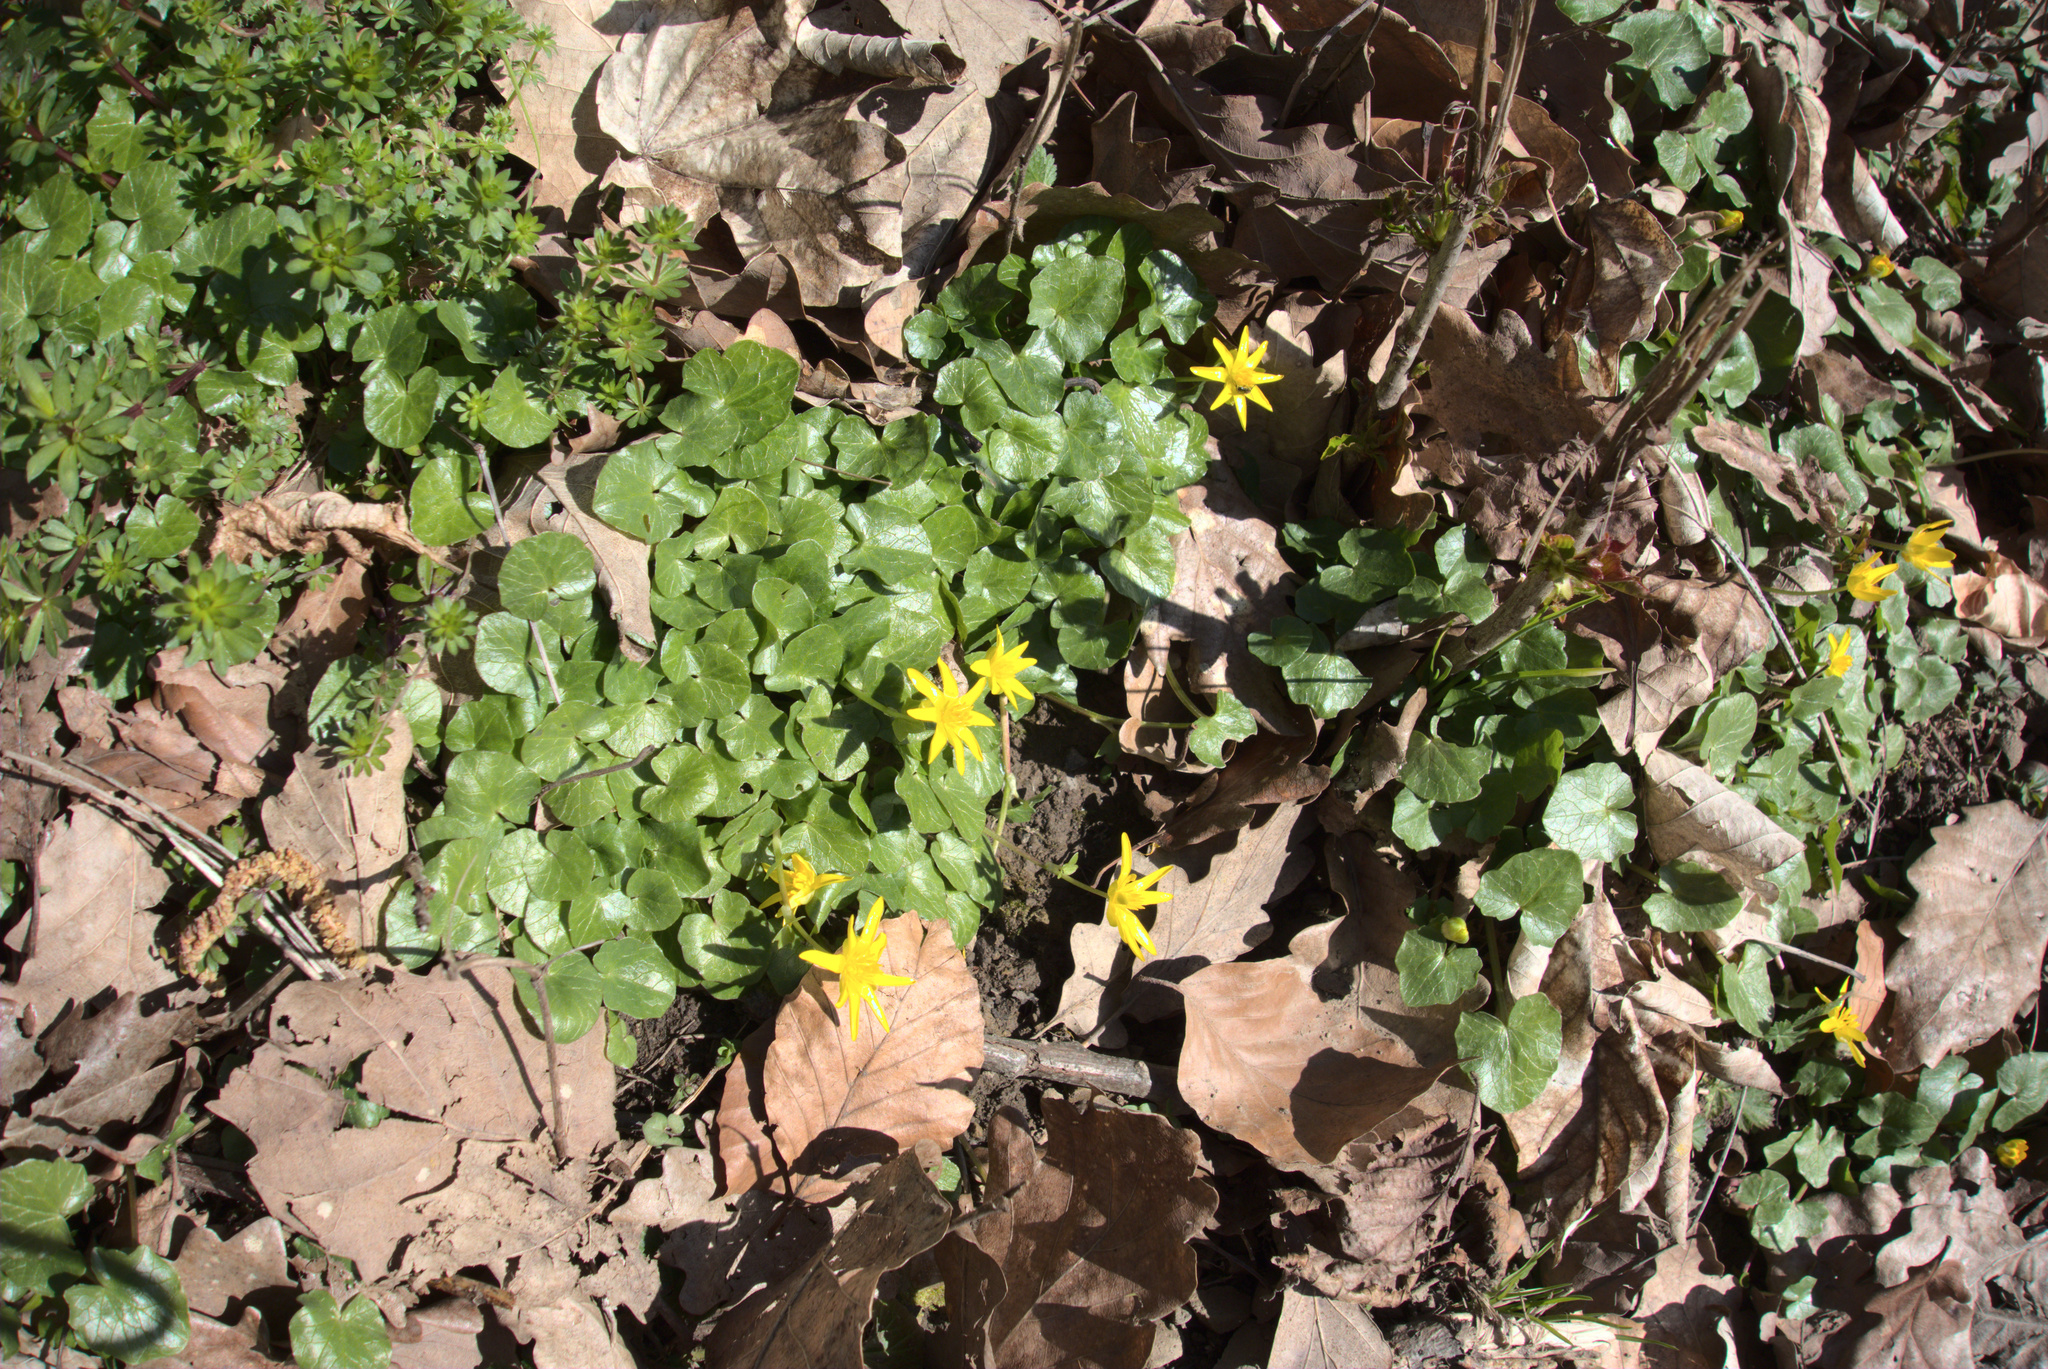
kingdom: Plantae
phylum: Tracheophyta
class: Magnoliopsida
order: Ranunculales
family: Ranunculaceae
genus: Ficaria
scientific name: Ficaria verna
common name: Lesser celandine
